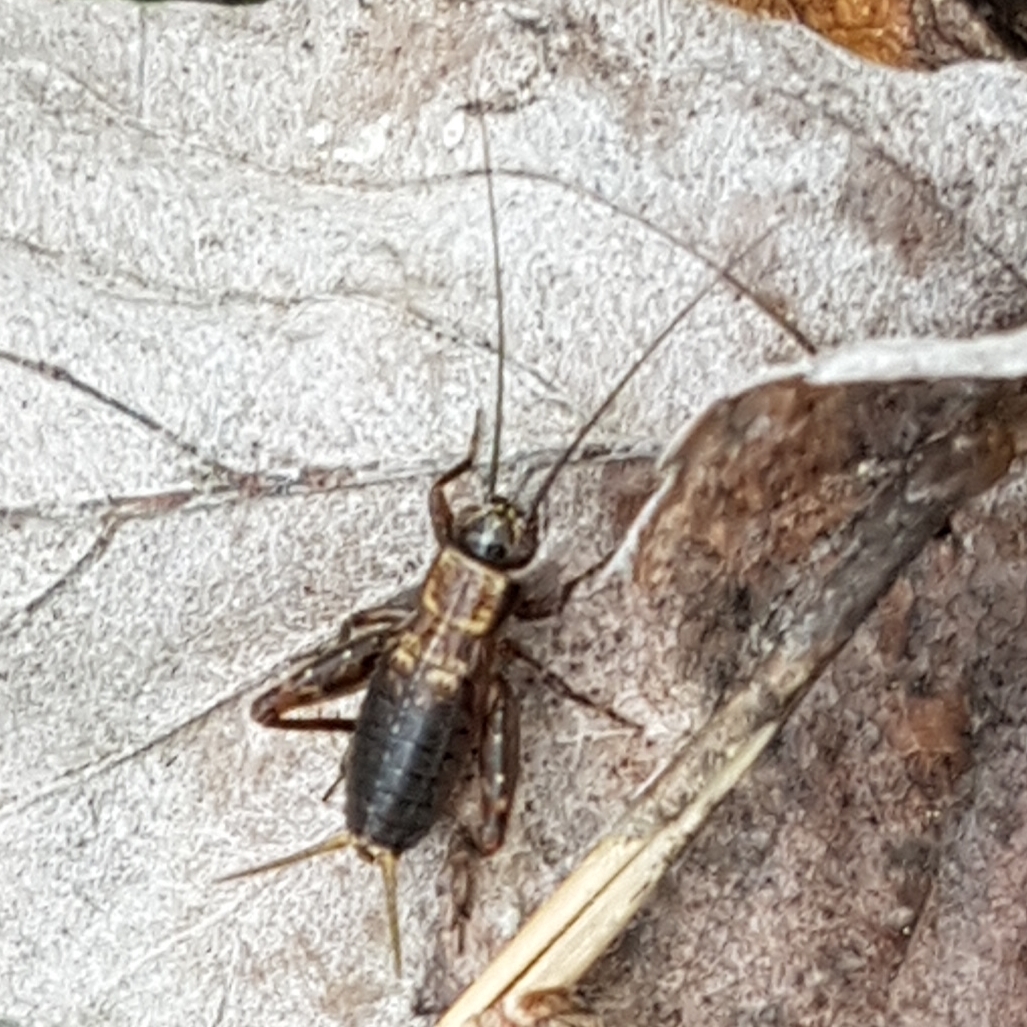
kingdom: Animalia
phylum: Arthropoda
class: Insecta
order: Orthoptera
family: Trigonidiidae
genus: Nemobius
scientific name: Nemobius sylvestris
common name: Wood-cricket
